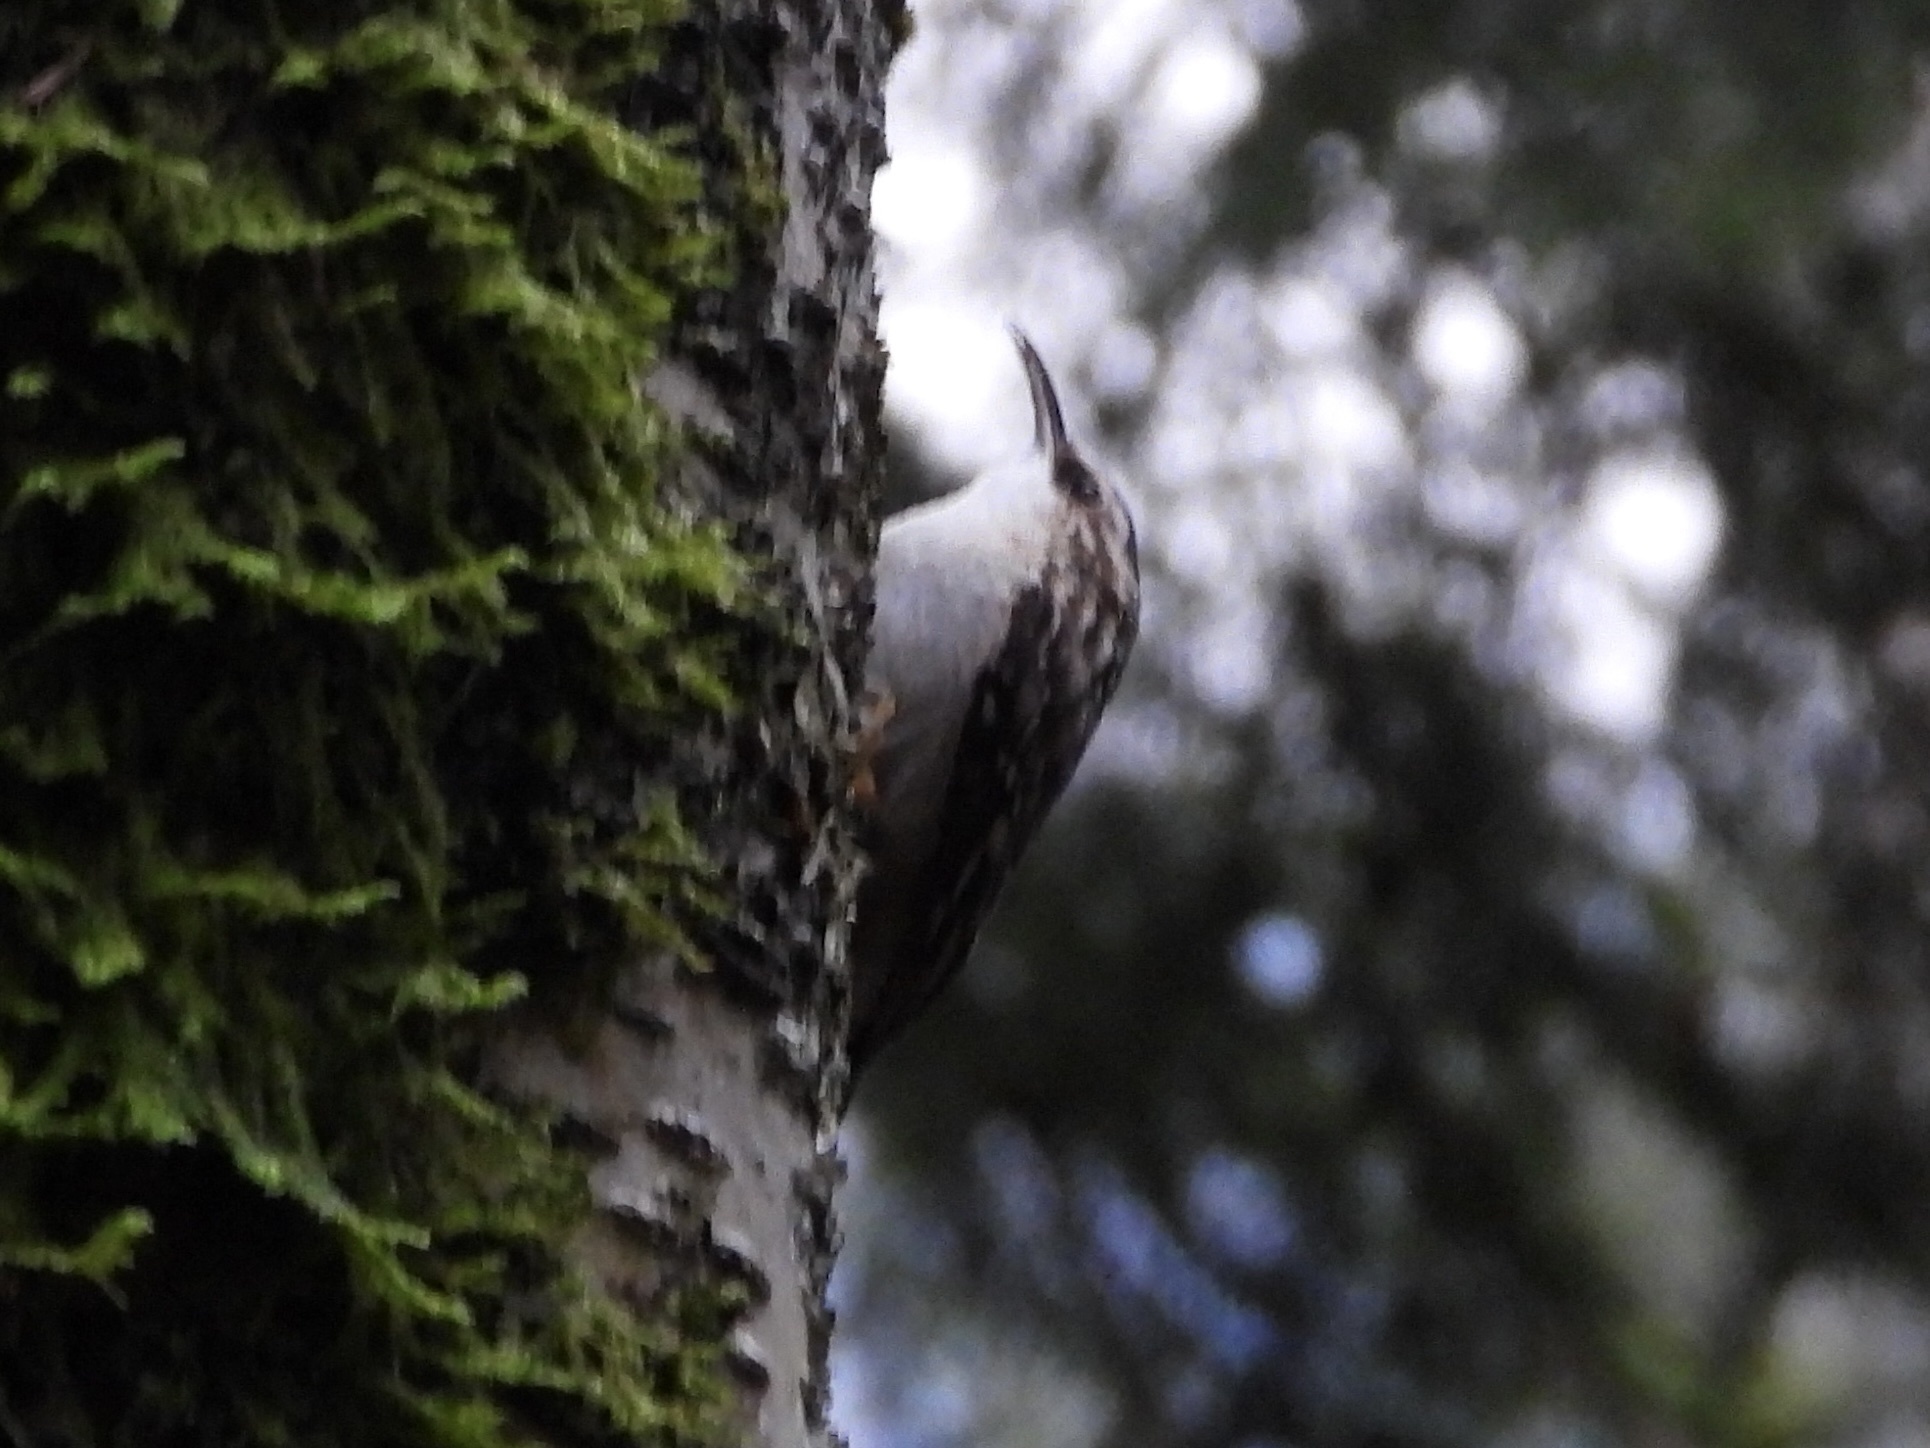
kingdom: Animalia
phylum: Chordata
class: Aves
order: Passeriformes
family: Certhiidae
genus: Certhia
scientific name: Certhia americana
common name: Brown creeper
